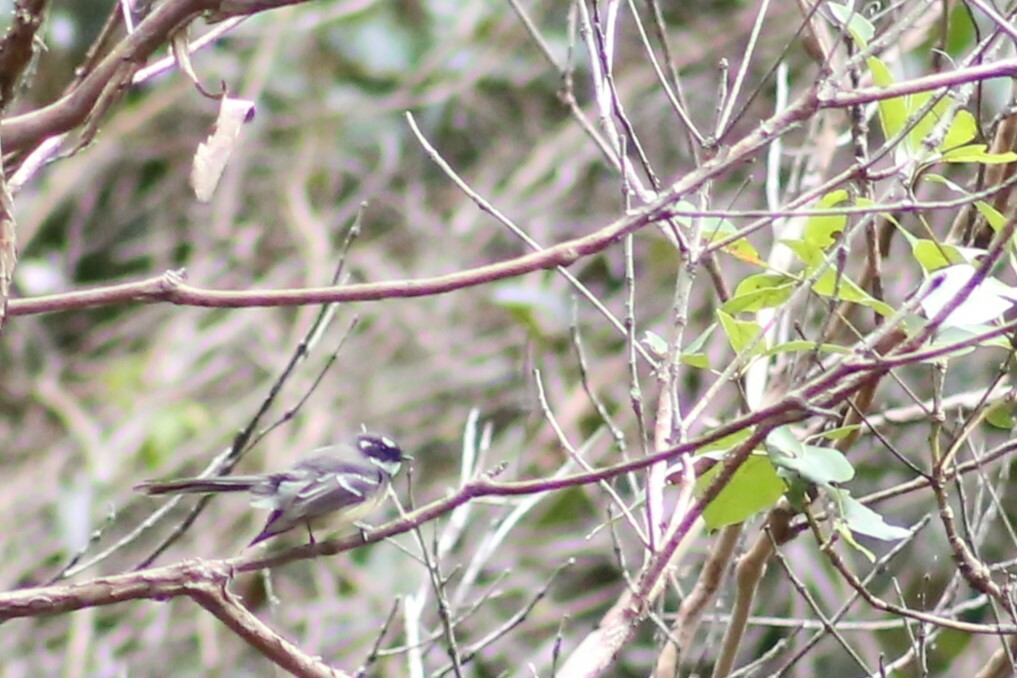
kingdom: Animalia
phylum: Chordata
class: Aves
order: Passeriformes
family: Rhipiduridae
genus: Rhipidura
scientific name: Rhipidura albiscapa
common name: Grey fantail
